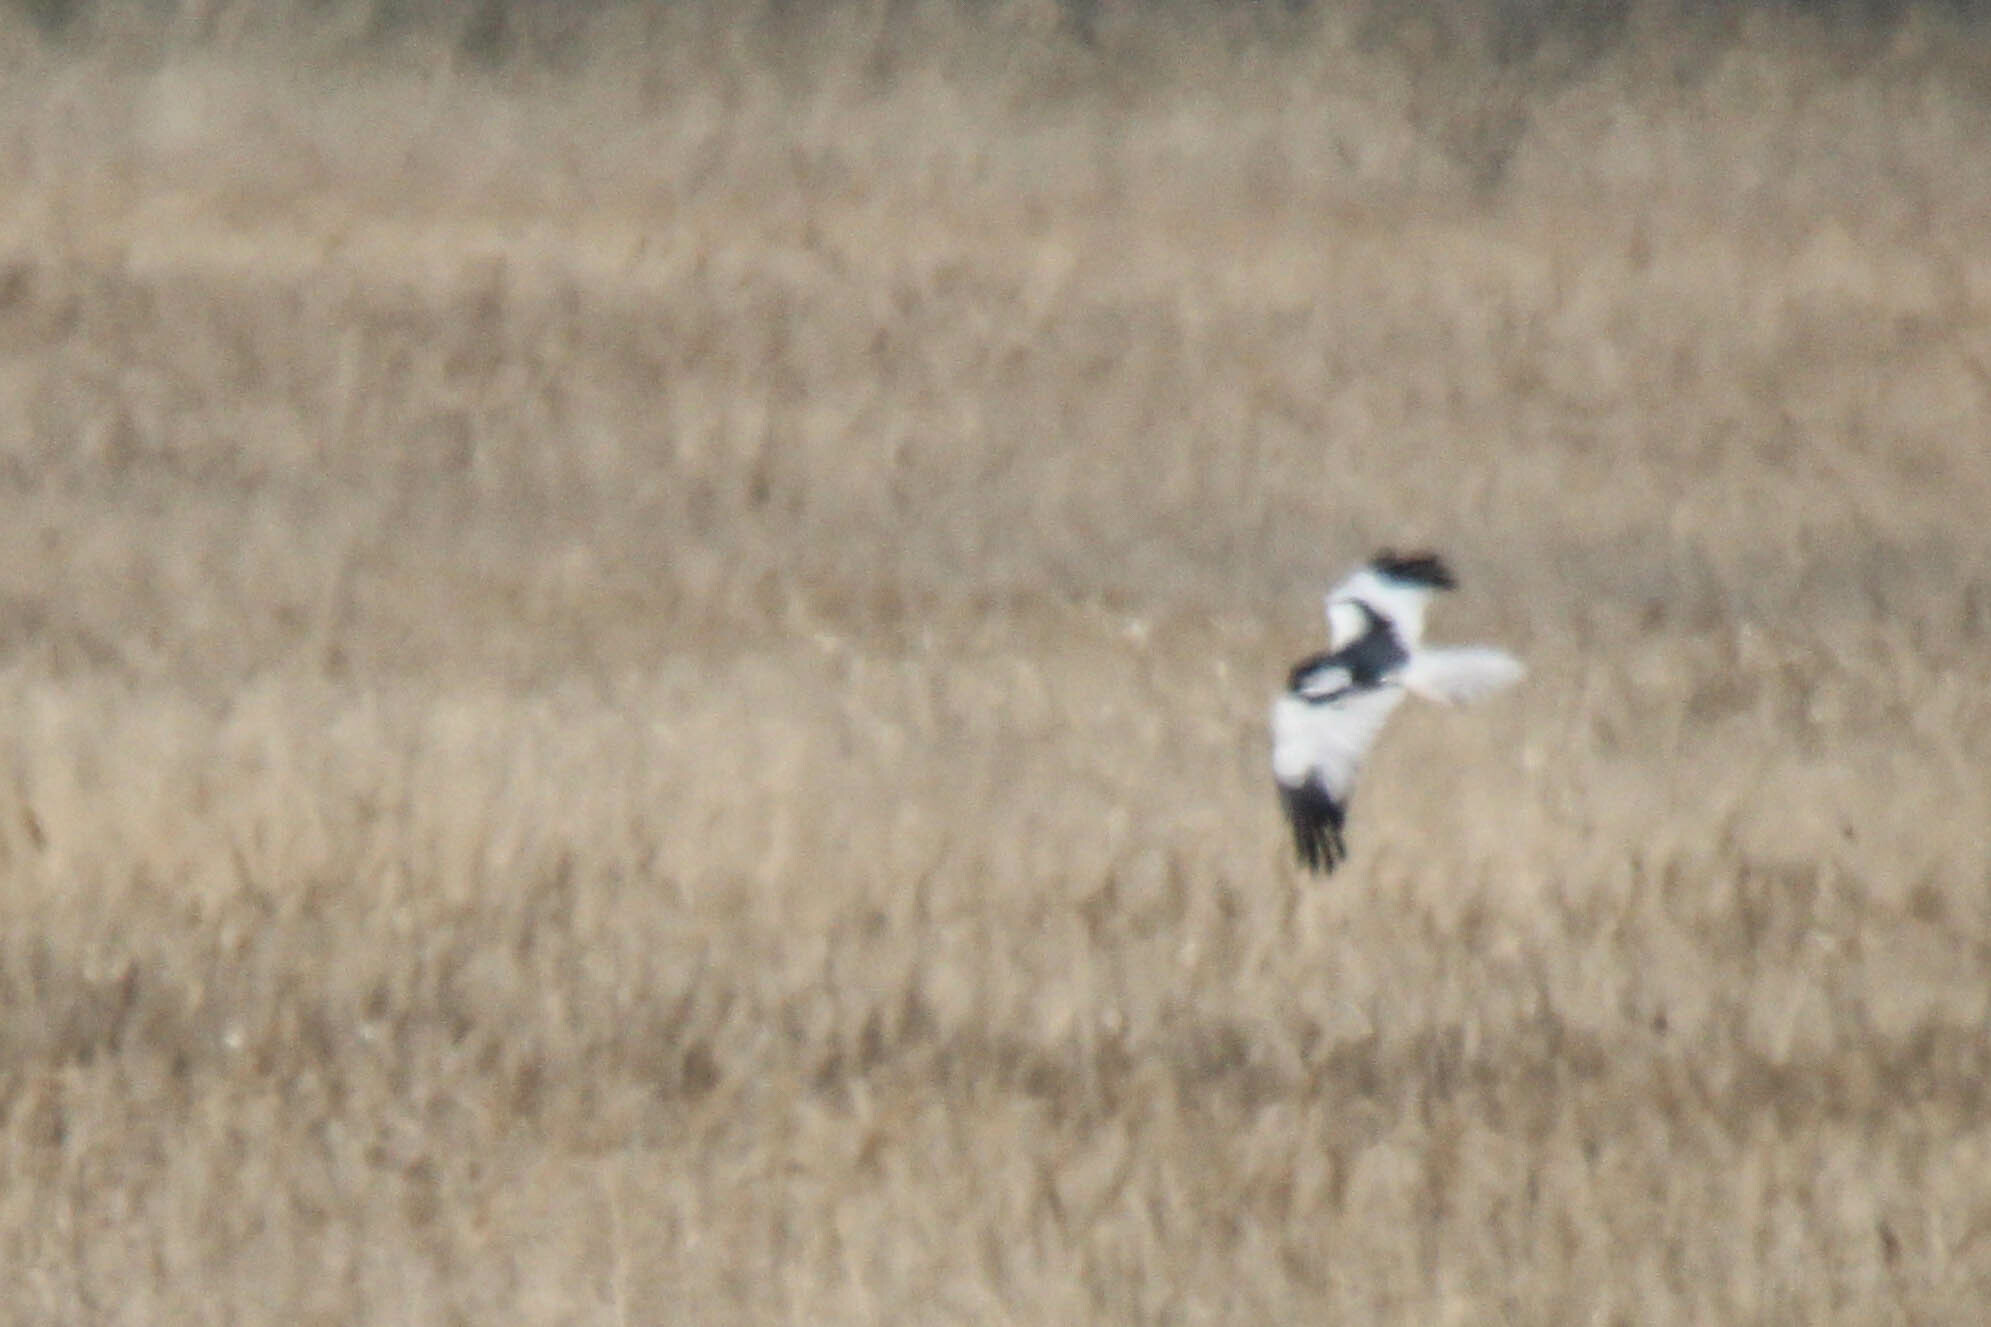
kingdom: Animalia
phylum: Chordata
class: Aves
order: Accipitriformes
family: Accipitridae
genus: Circus
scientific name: Circus melanoleucos
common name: Pied harrier
